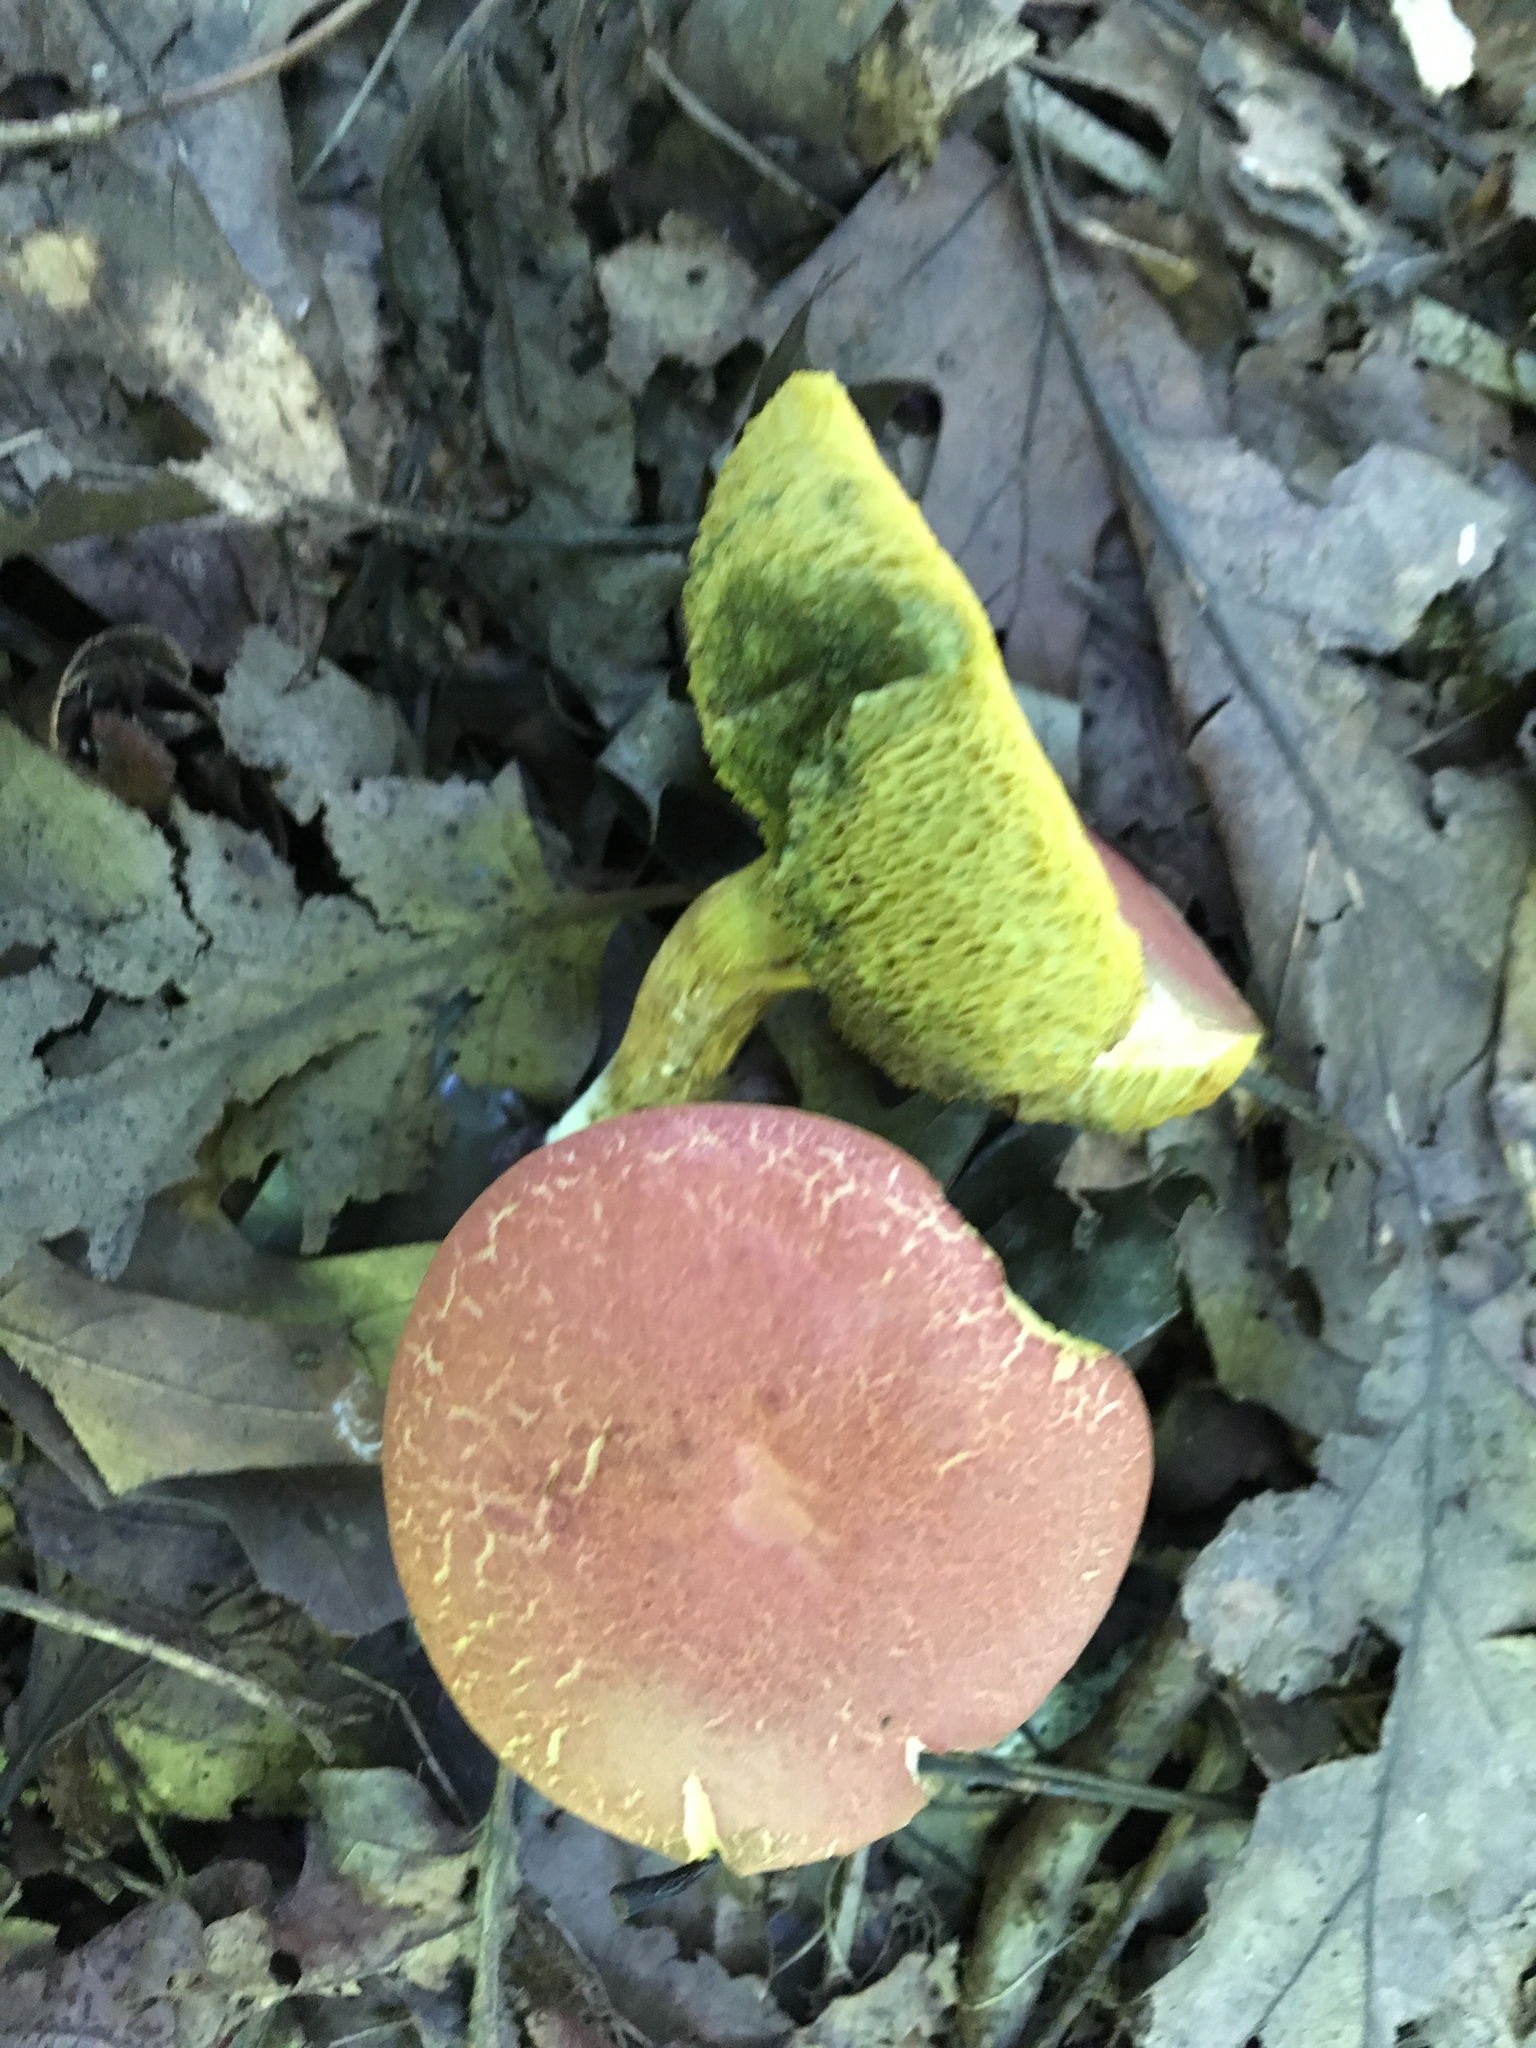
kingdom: Fungi
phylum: Basidiomycota
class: Agaricomycetes
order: Boletales
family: Boletaceae
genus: Xerocomellus
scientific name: Xerocomellus chrysenteron
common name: Red-cracking bolete
